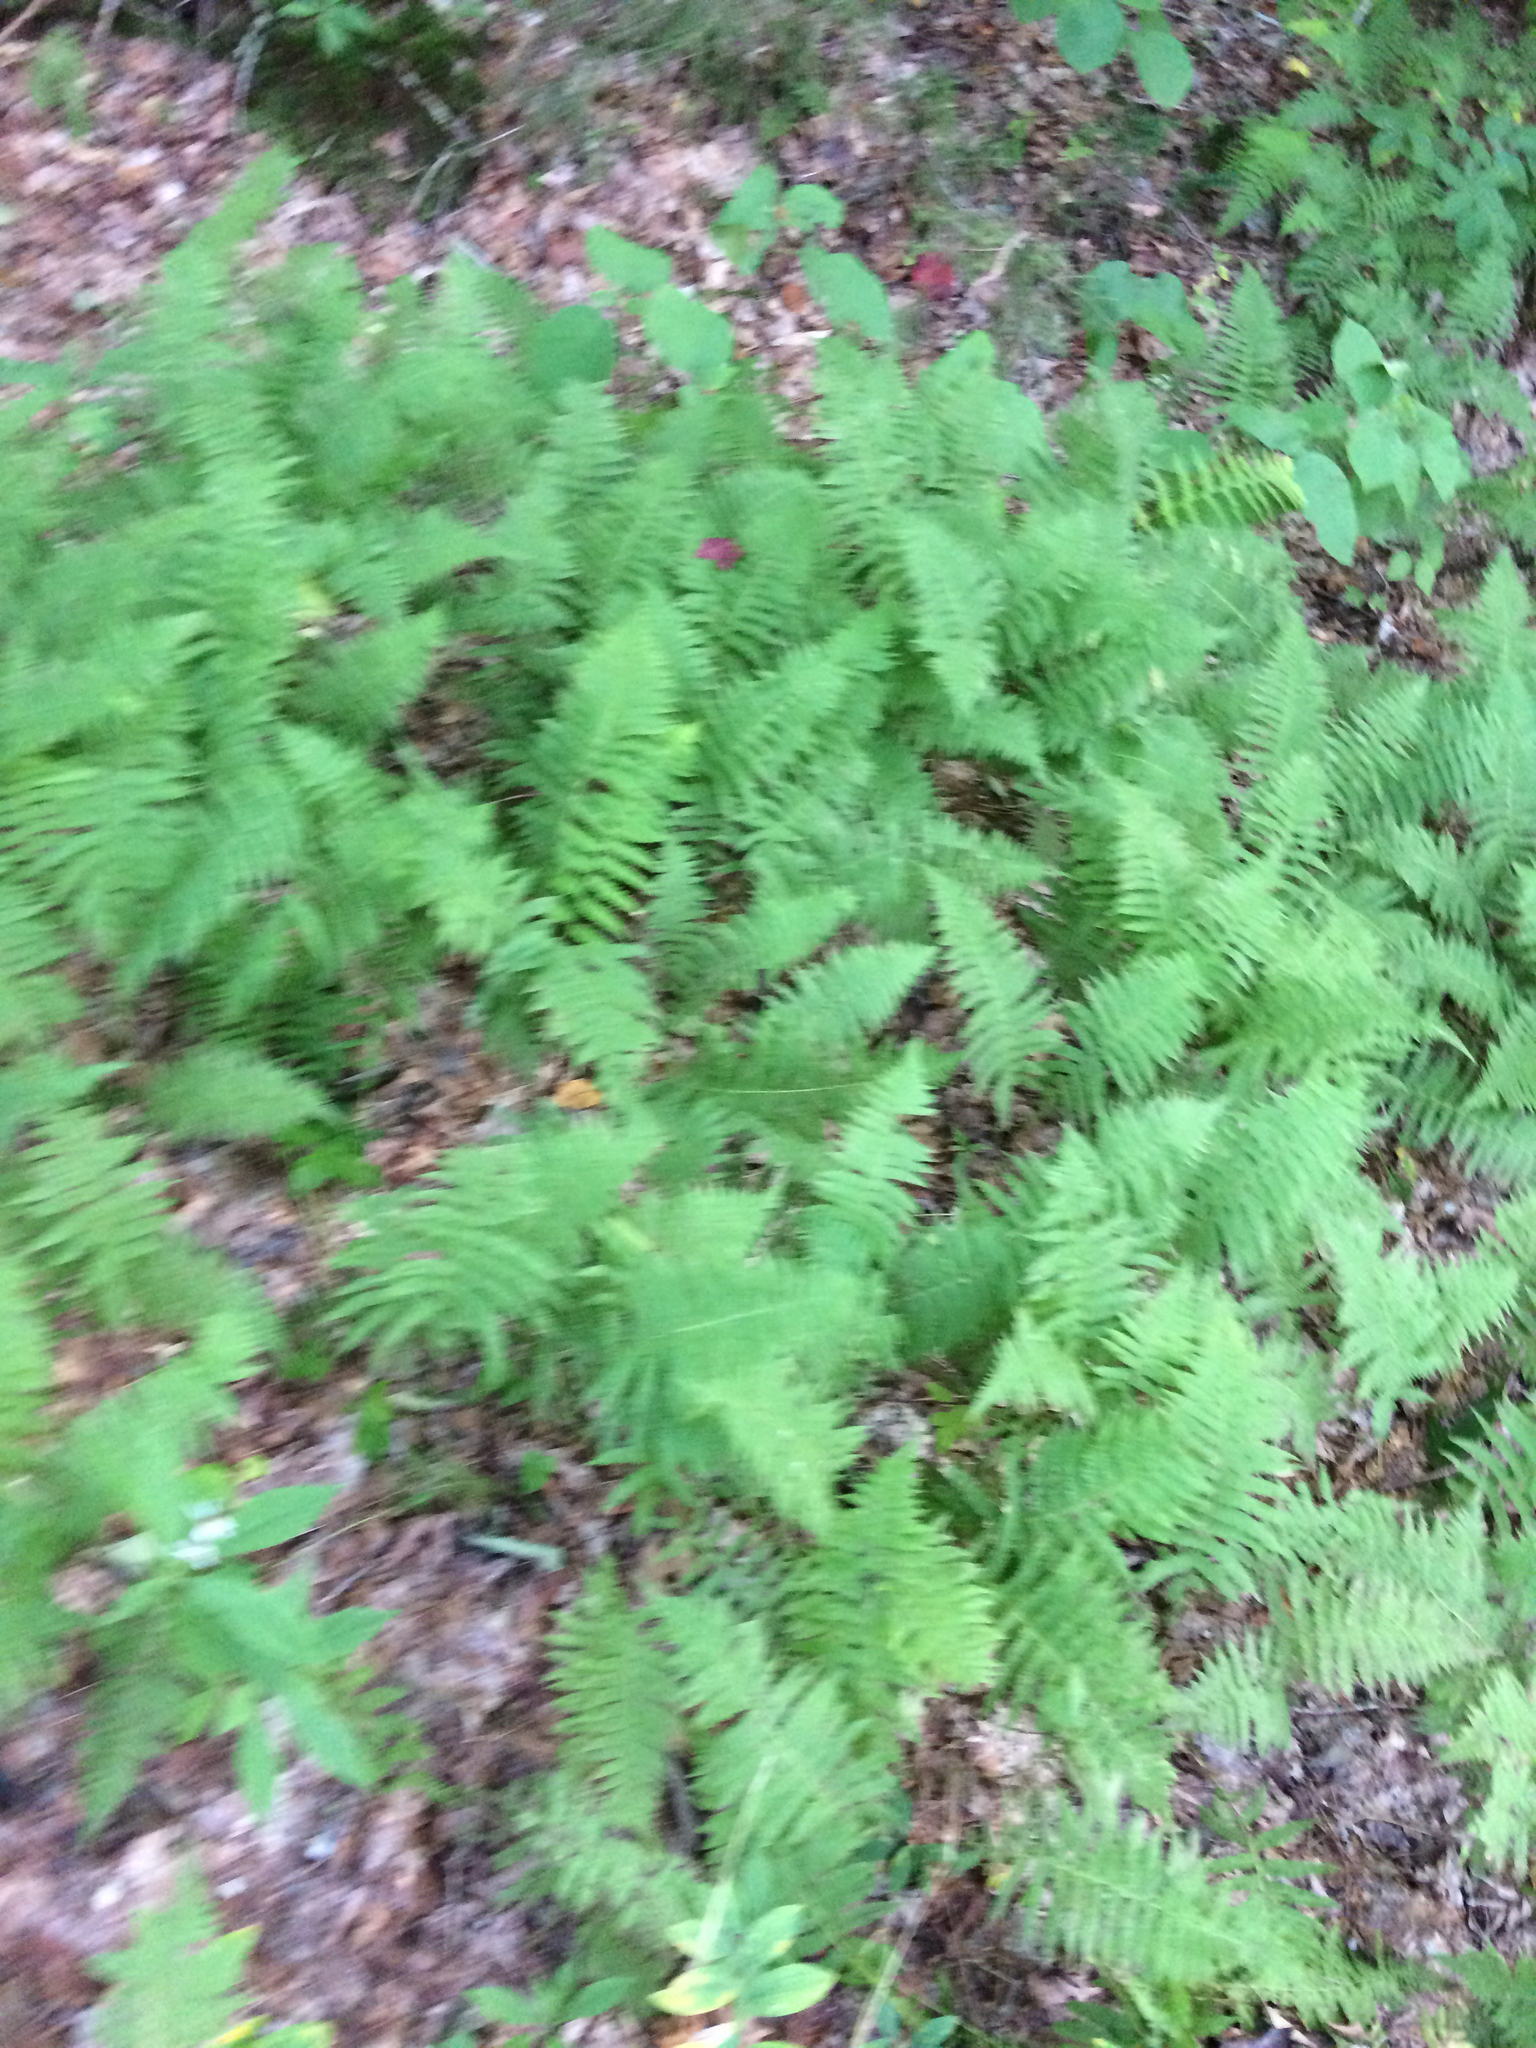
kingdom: Plantae
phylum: Tracheophyta
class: Polypodiopsida
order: Polypodiales
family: Dennstaedtiaceae
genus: Sitobolium
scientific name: Sitobolium punctilobum
